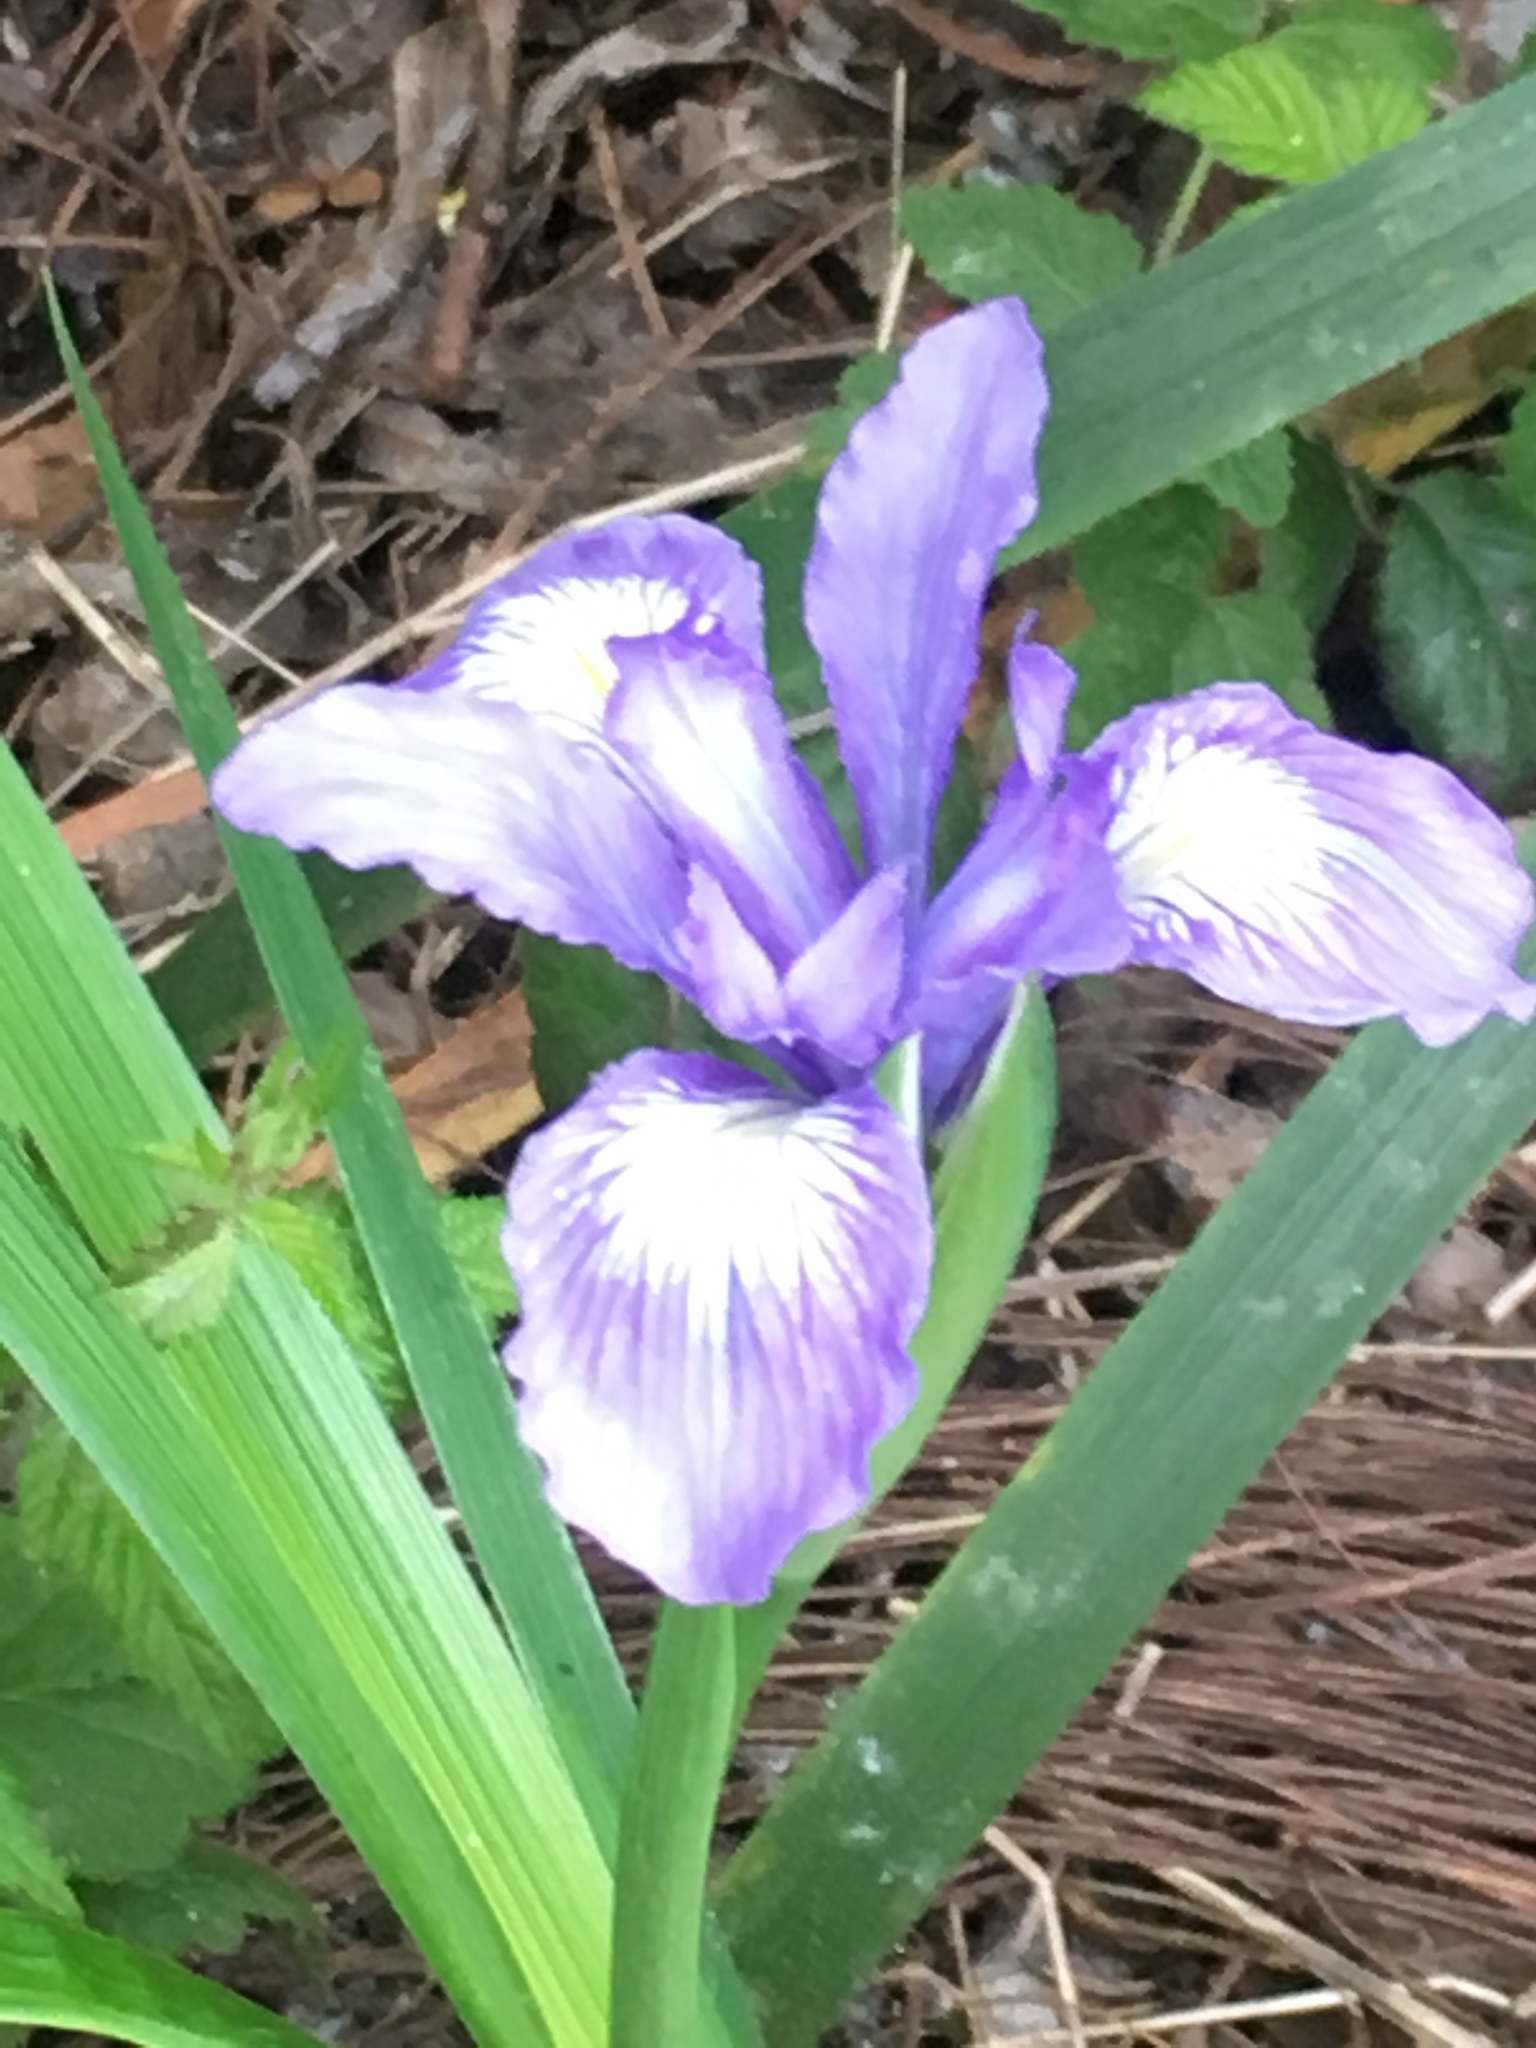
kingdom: Plantae
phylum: Tracheophyta
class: Liliopsida
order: Asparagales
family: Iridaceae
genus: Iris
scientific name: Iris douglasiana
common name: Marin iris
